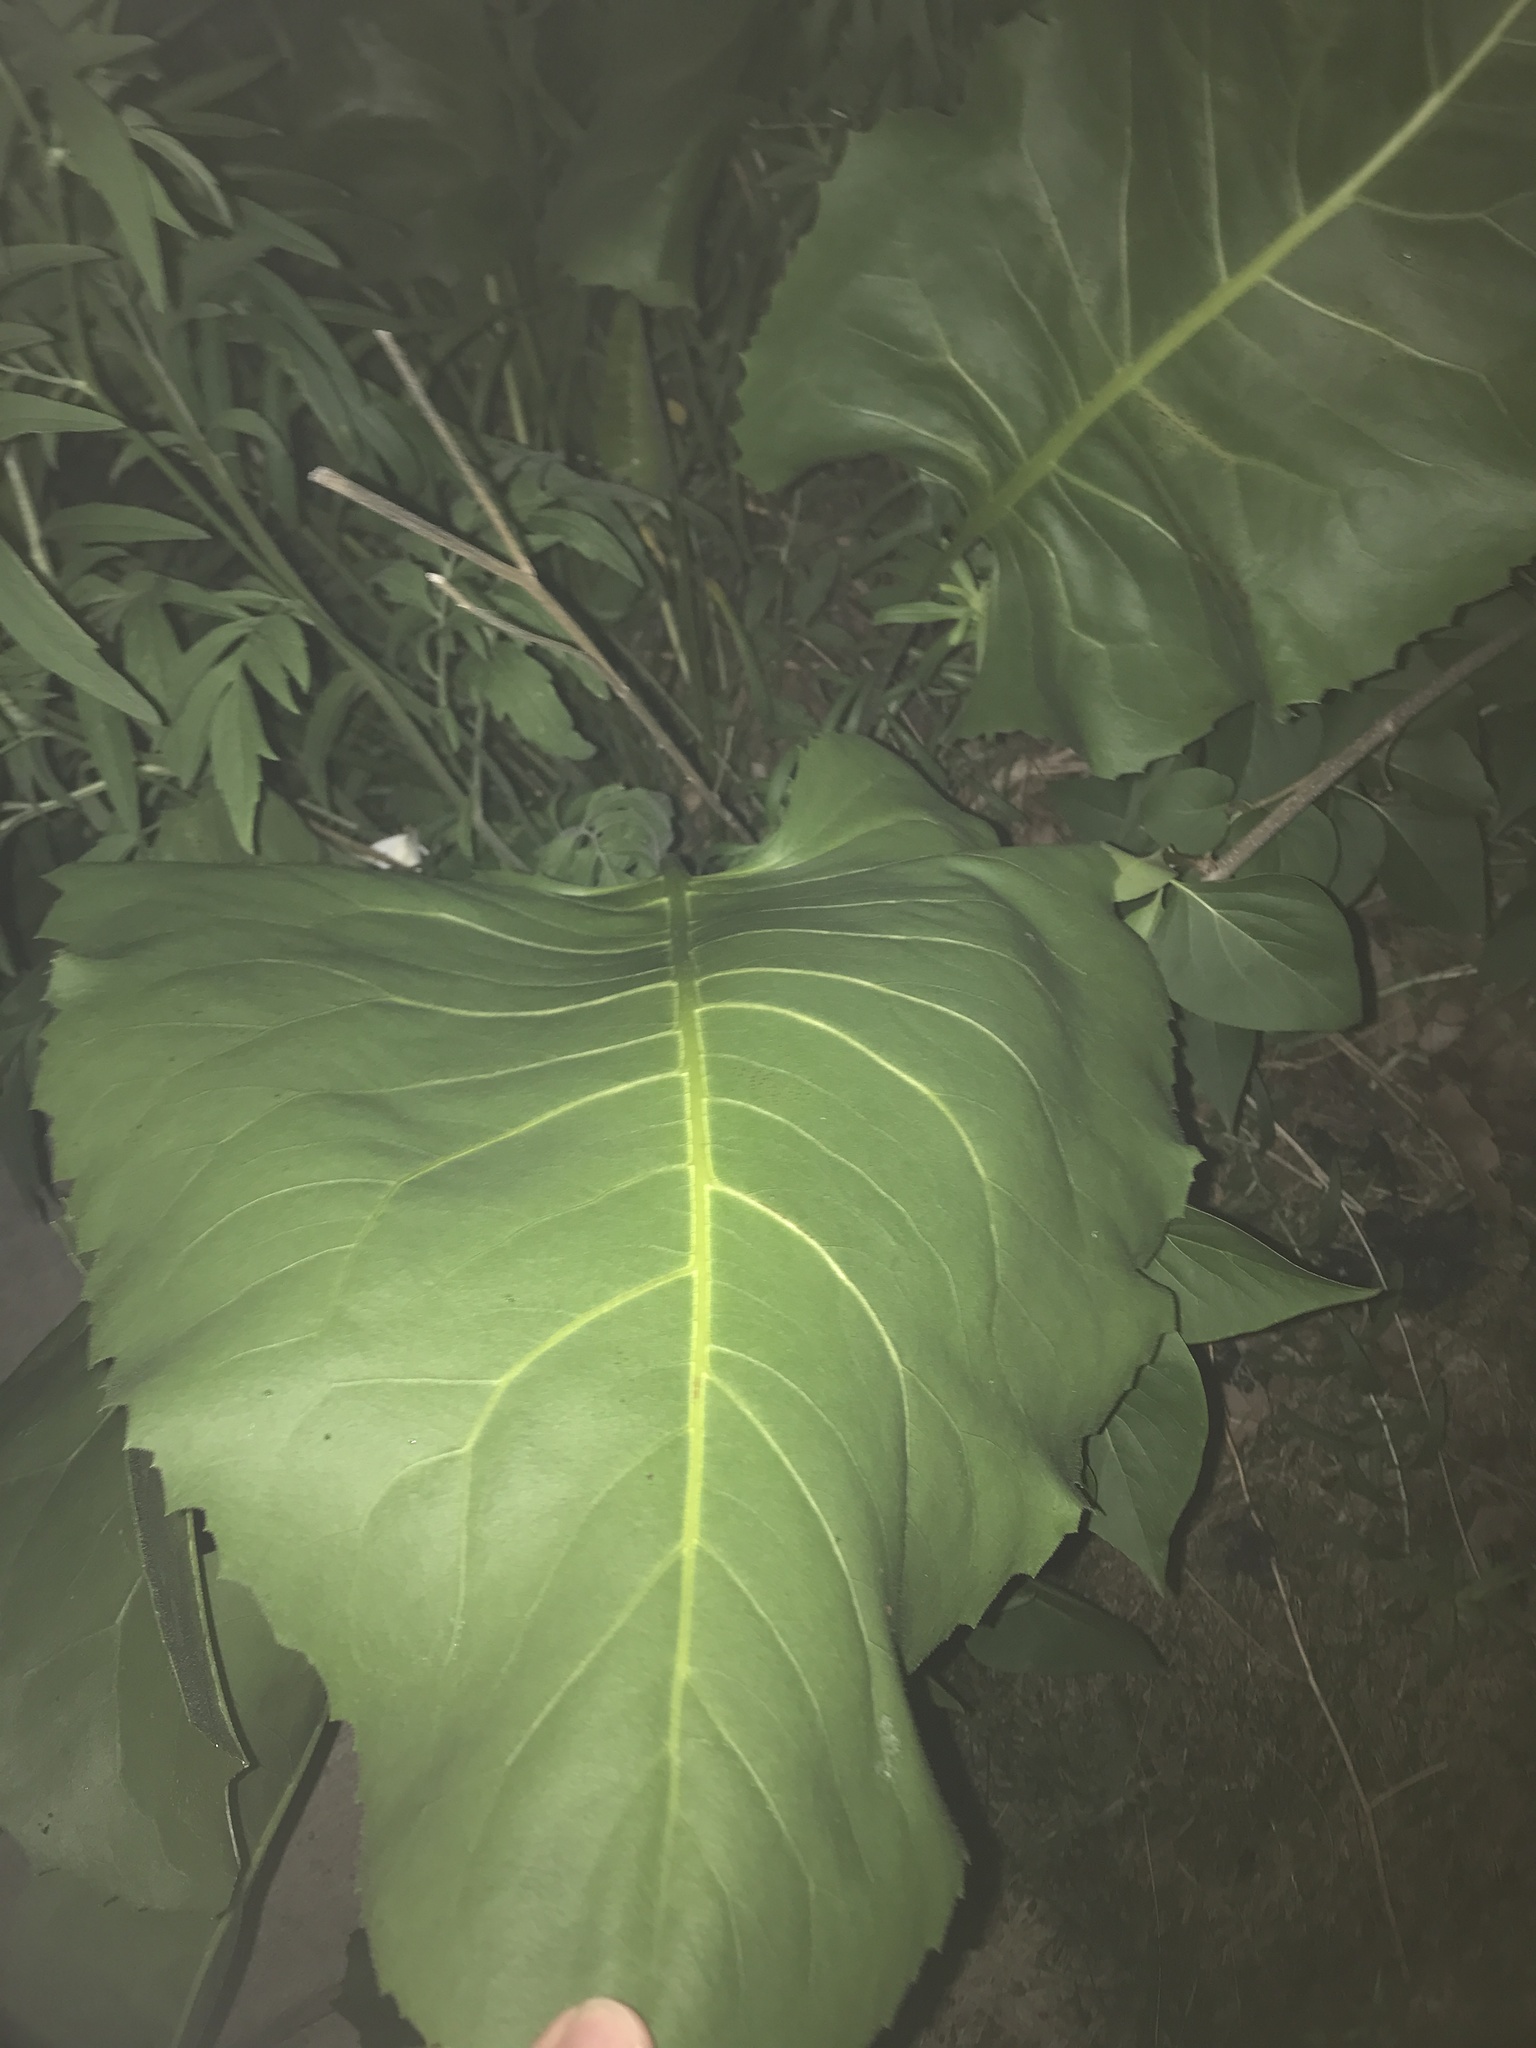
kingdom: Plantae
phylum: Tracheophyta
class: Magnoliopsida
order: Asterales
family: Asteraceae
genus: Silphium
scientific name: Silphium terebinthinaceum
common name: Basal-leaf rosinweed
